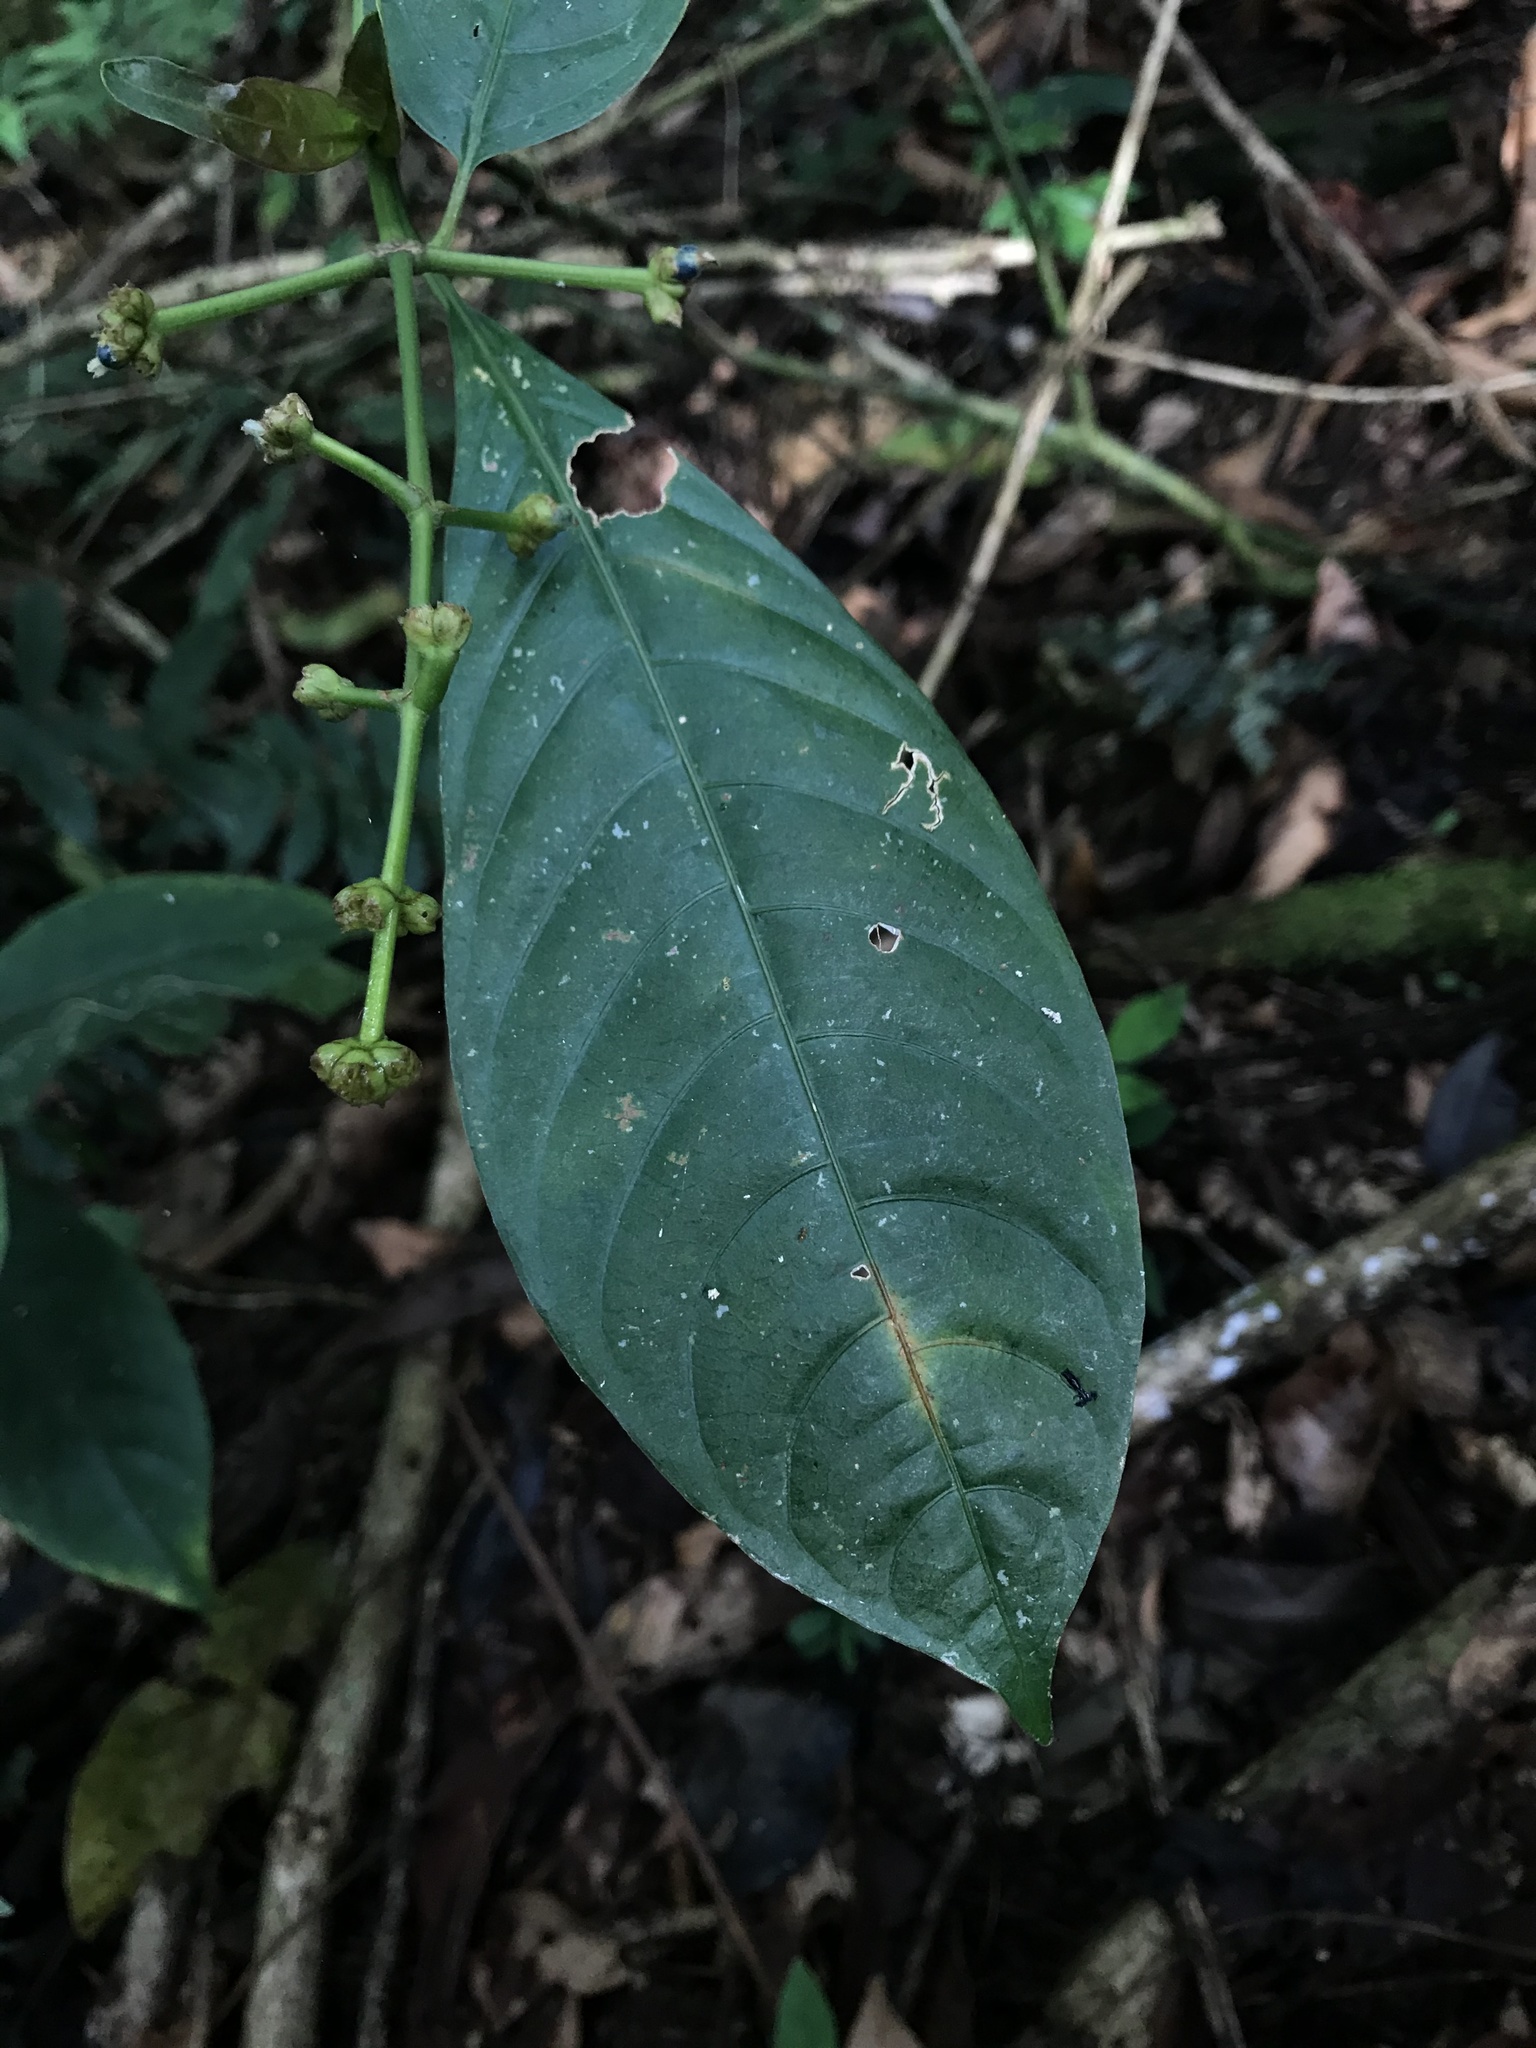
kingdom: Plantae
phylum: Tracheophyta
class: Magnoliopsida
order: Gentianales
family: Rubiaceae
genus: Palicourea
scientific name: Palicourea caerulea
